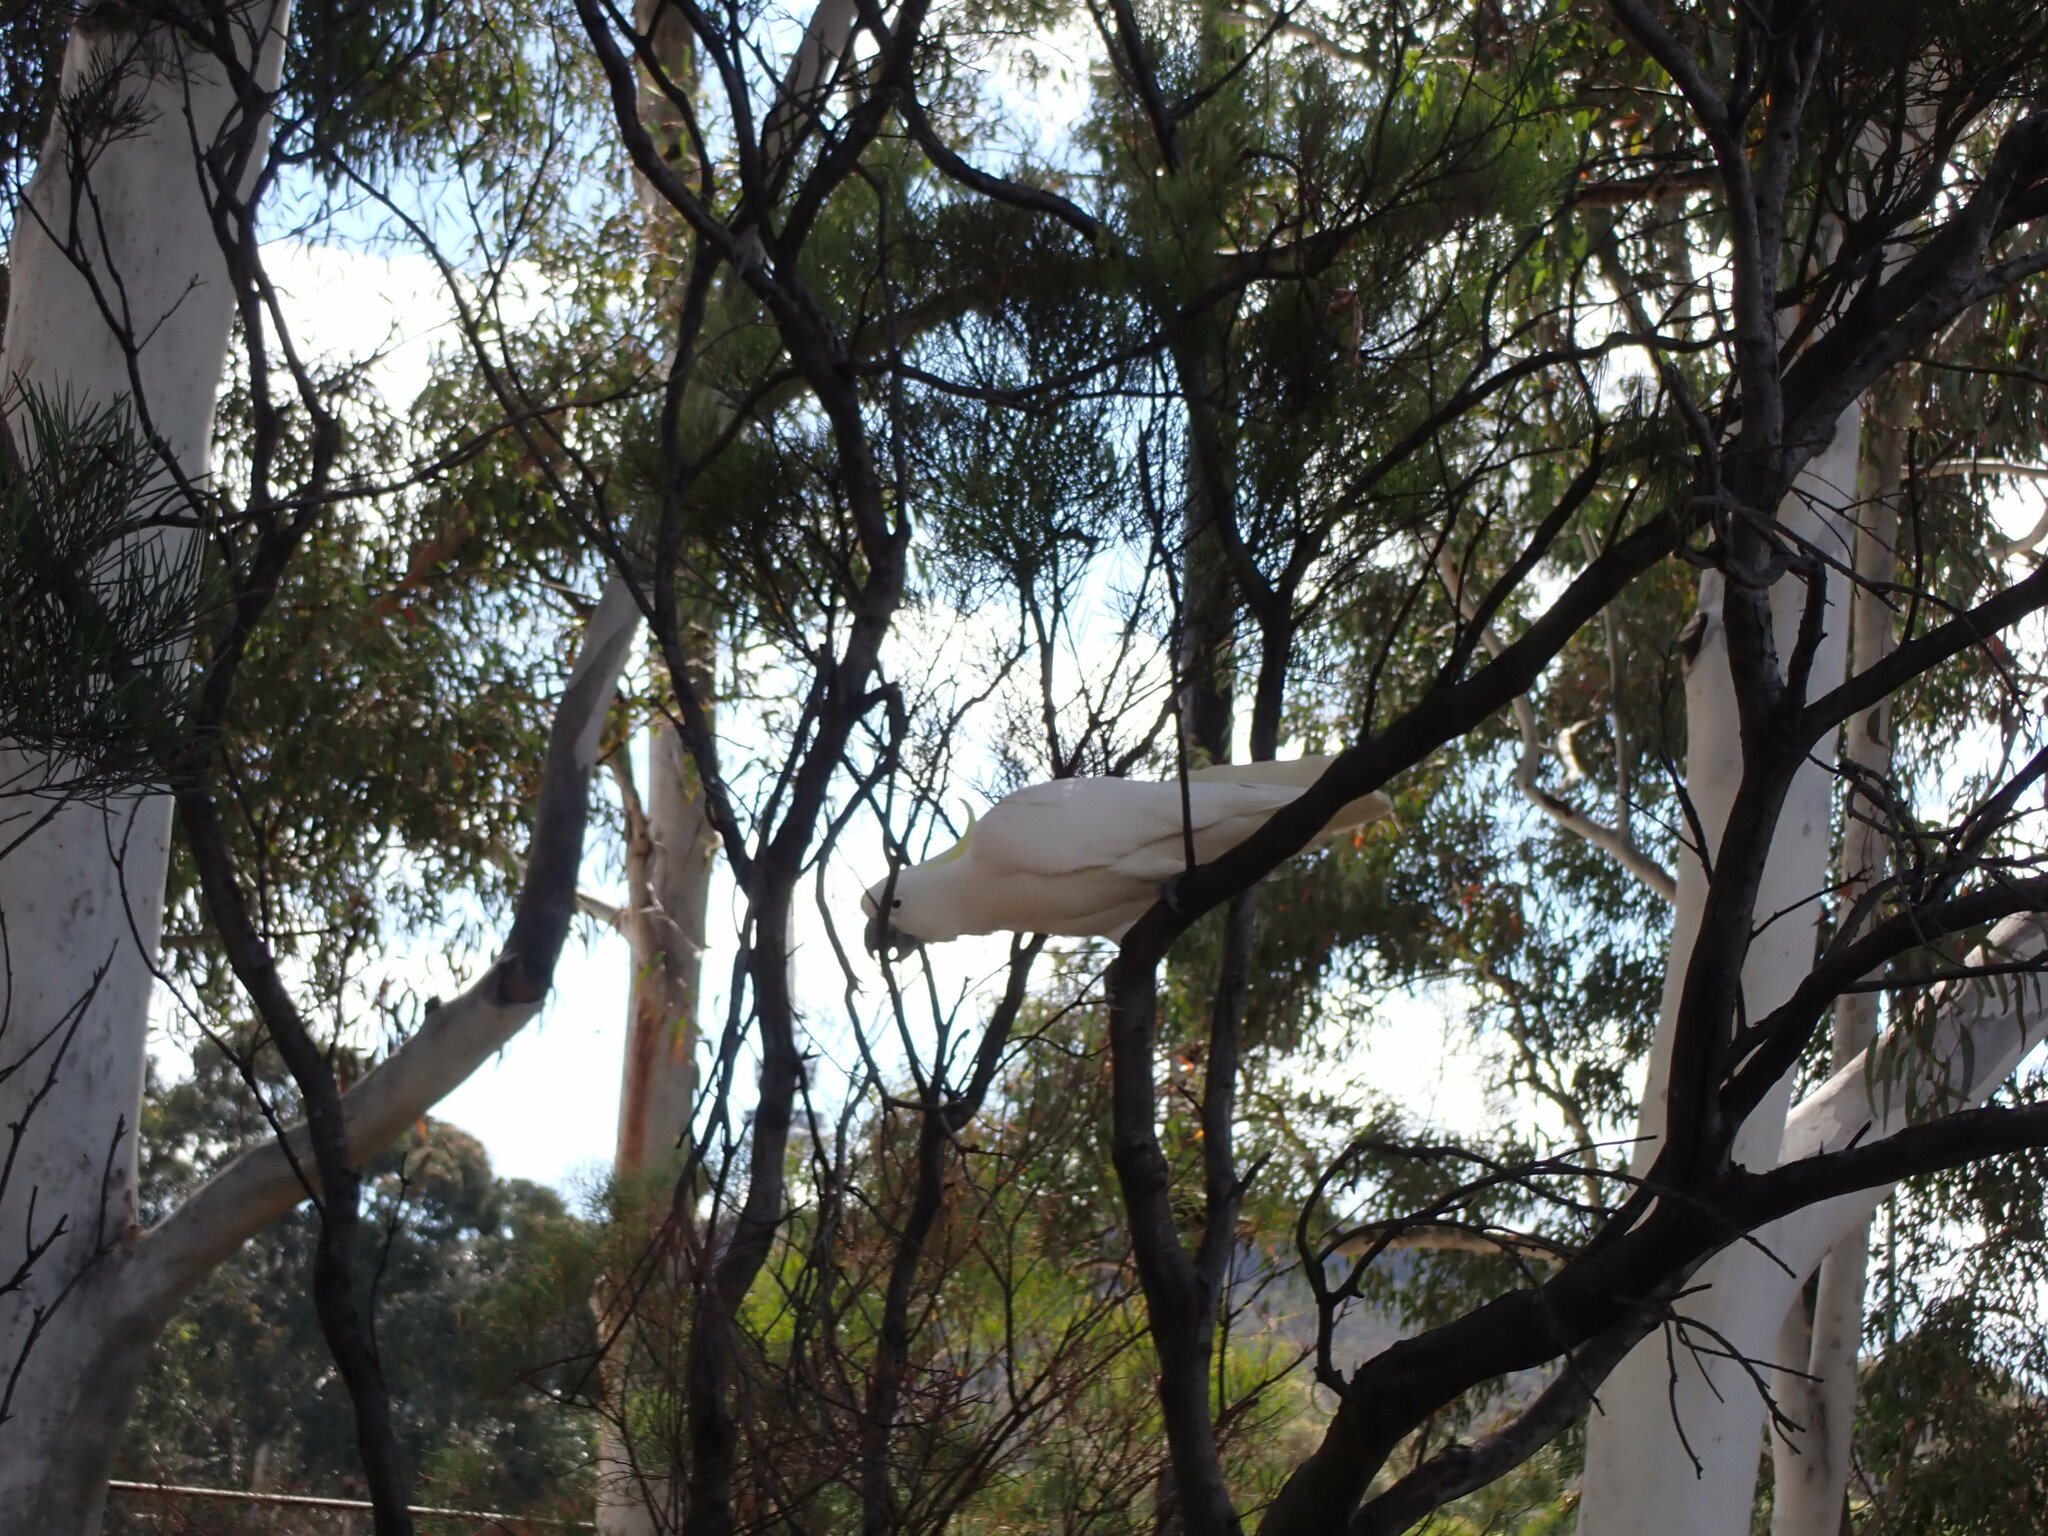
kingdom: Animalia
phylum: Chordata
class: Aves
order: Psittaciformes
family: Psittacidae
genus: Cacatua
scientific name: Cacatua galerita
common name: Sulphur-crested cockatoo
